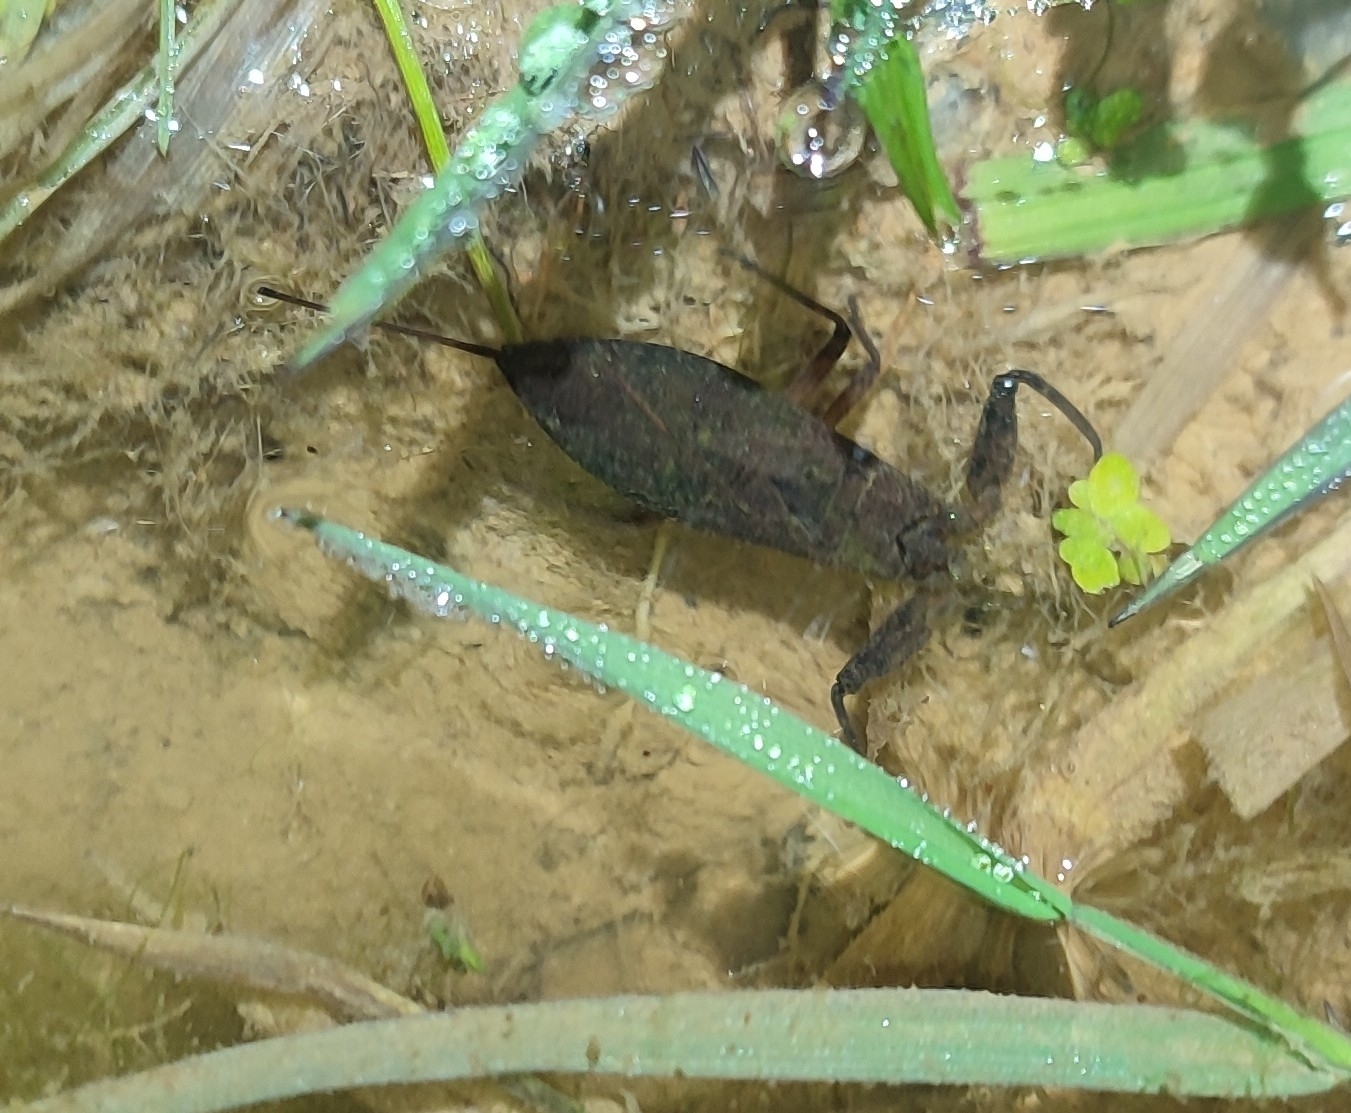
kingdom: Animalia
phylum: Arthropoda
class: Insecta
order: Hemiptera
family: Nepidae
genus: Nepa
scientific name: Nepa cinerea
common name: Water scorpion
